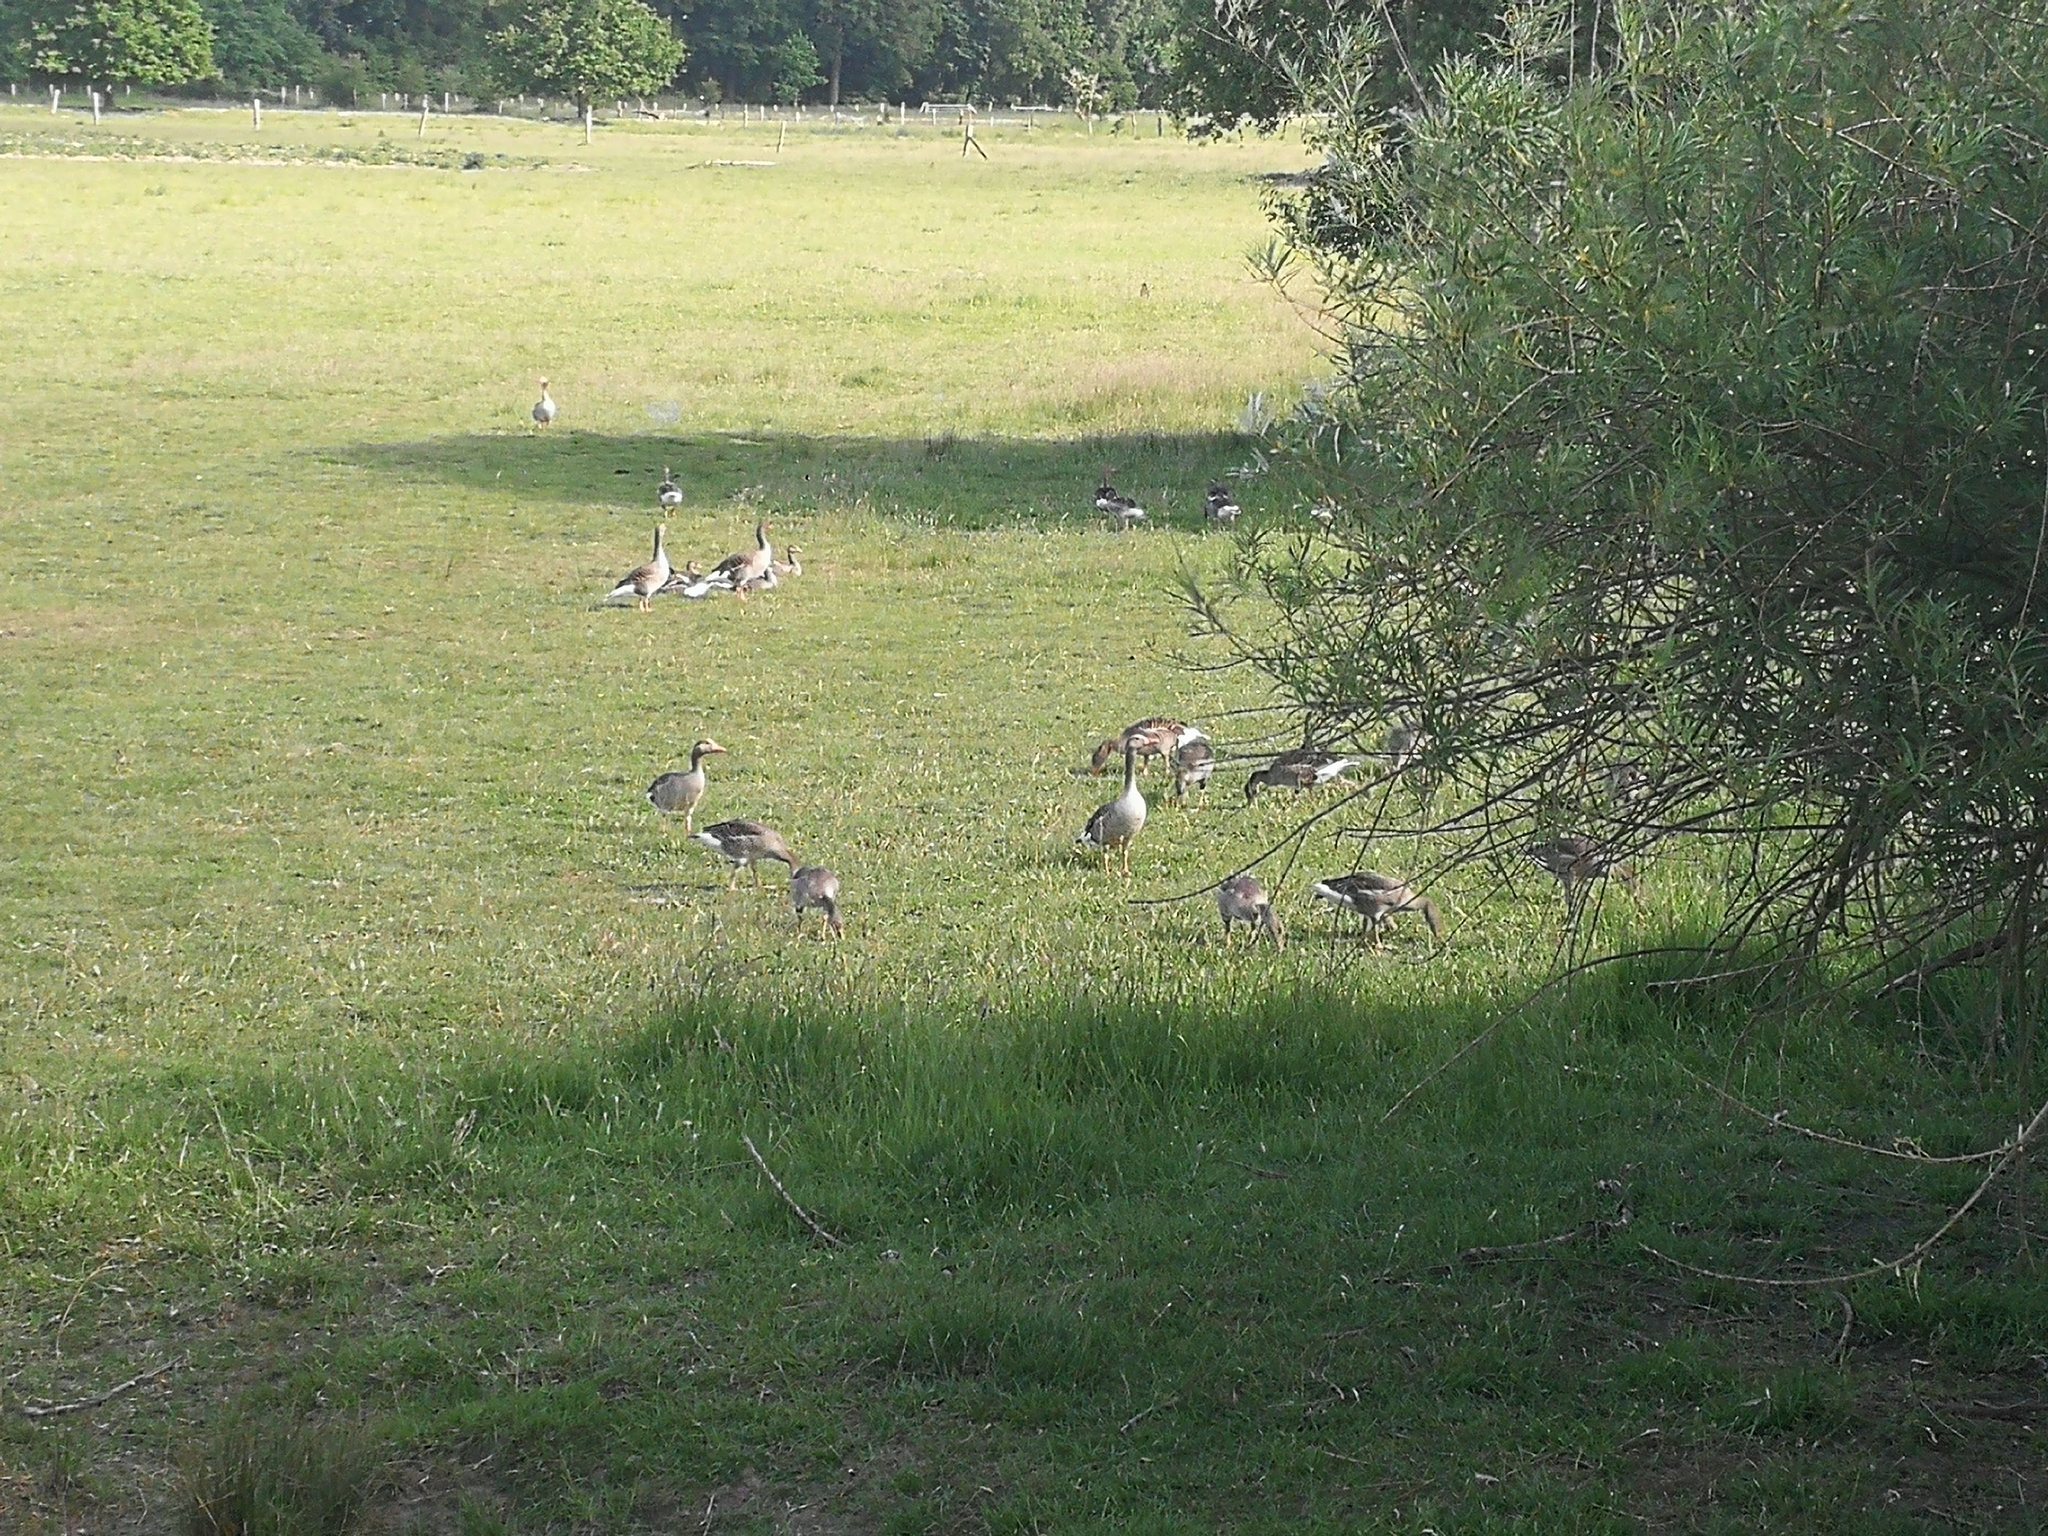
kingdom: Animalia
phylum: Chordata
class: Aves
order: Anseriformes
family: Anatidae
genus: Anser
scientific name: Anser anser
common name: Greylag goose
